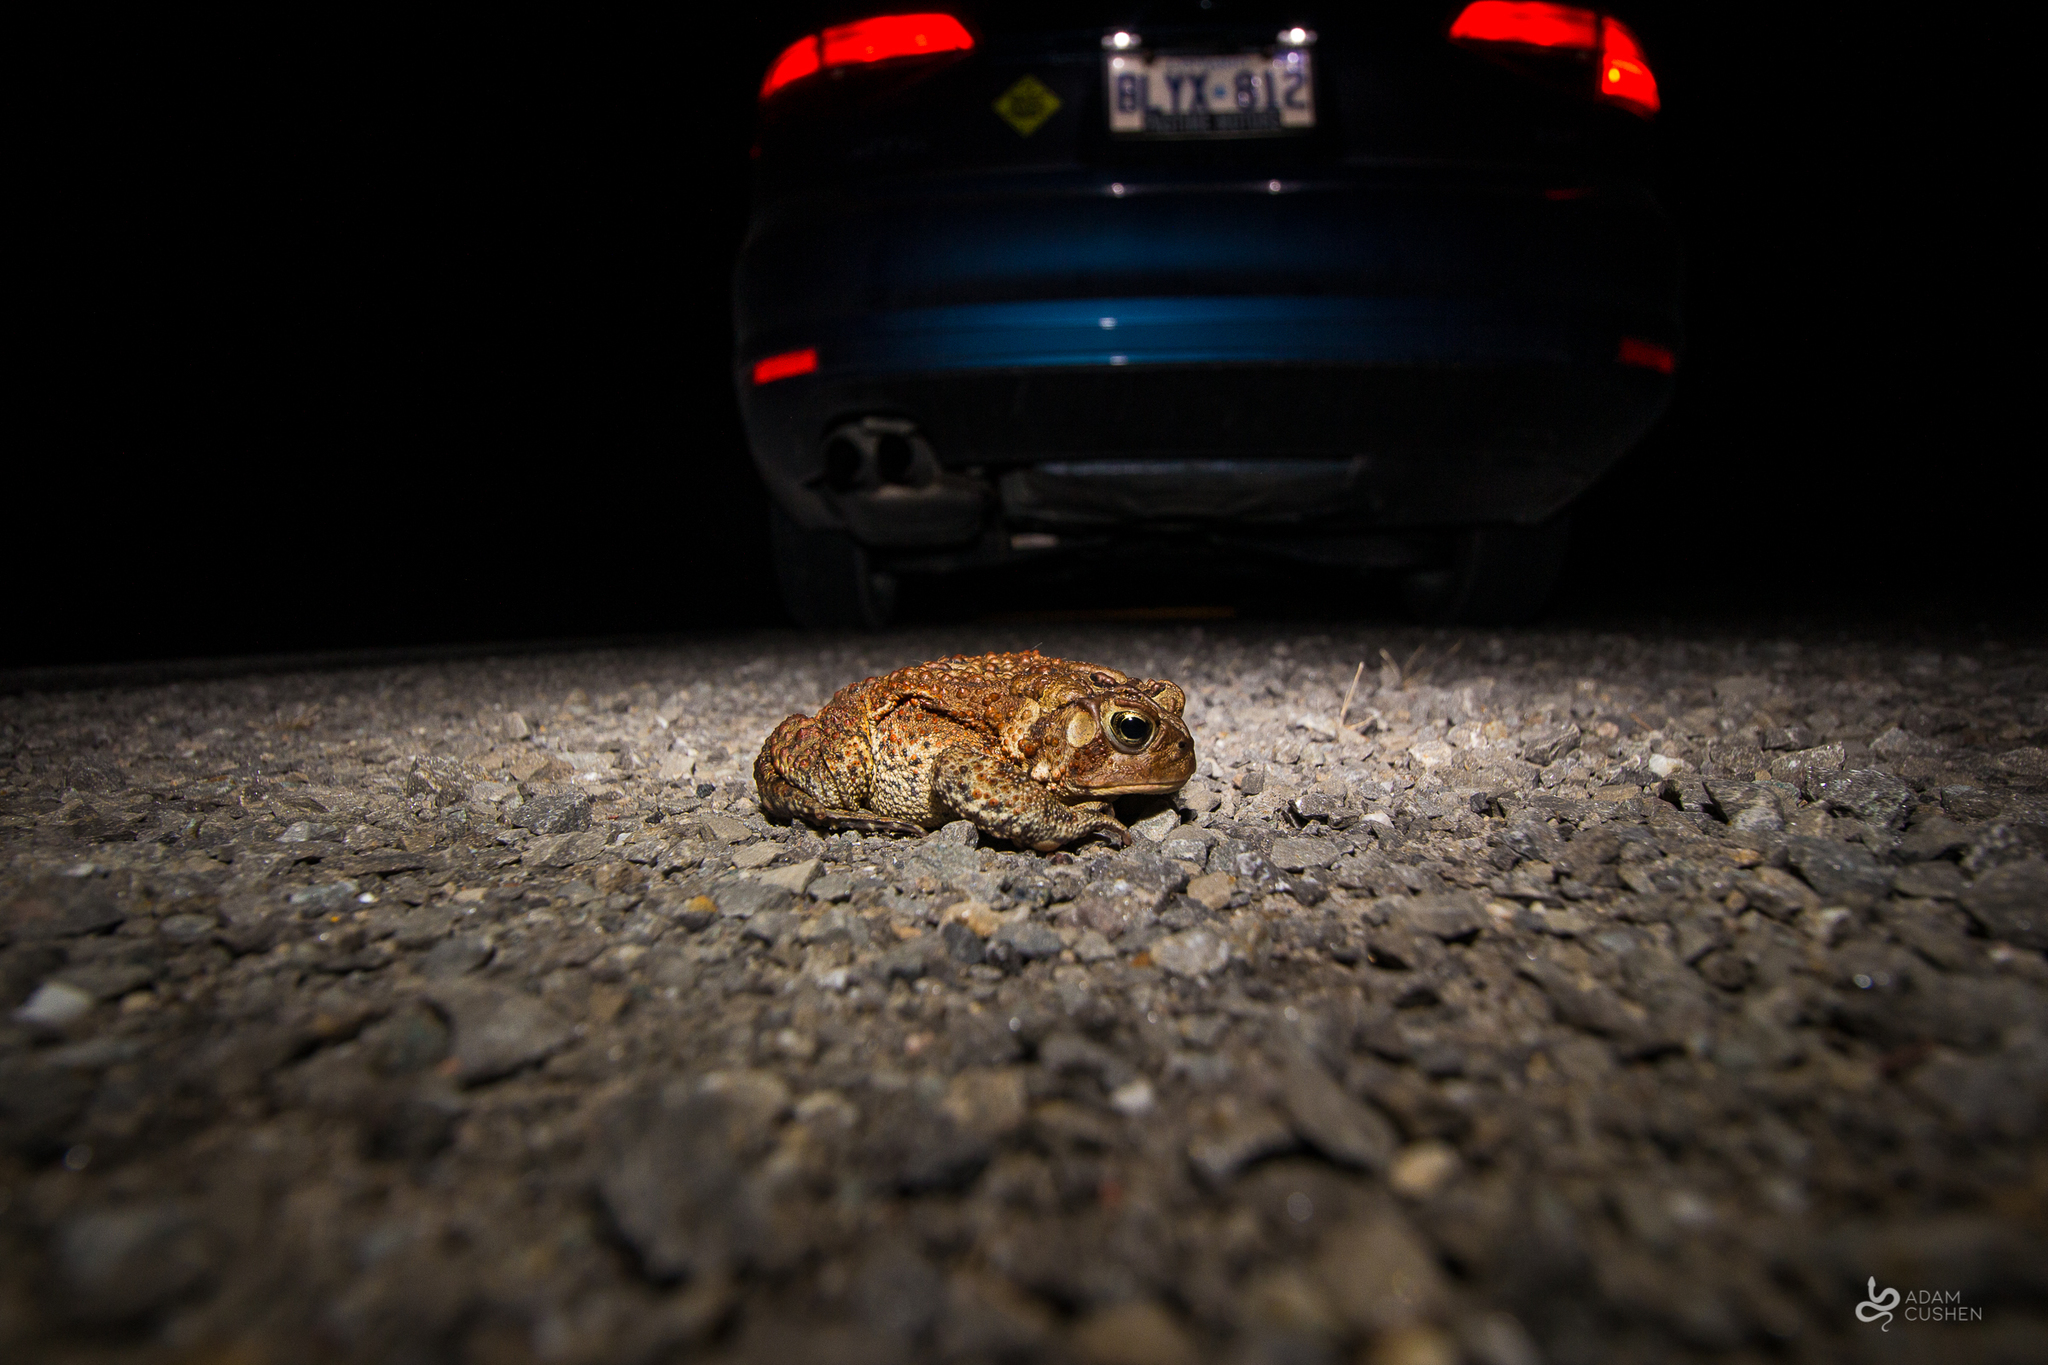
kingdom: Animalia
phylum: Chordata
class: Amphibia
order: Anura
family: Bufonidae
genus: Anaxyrus
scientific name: Anaxyrus americanus
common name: American toad
